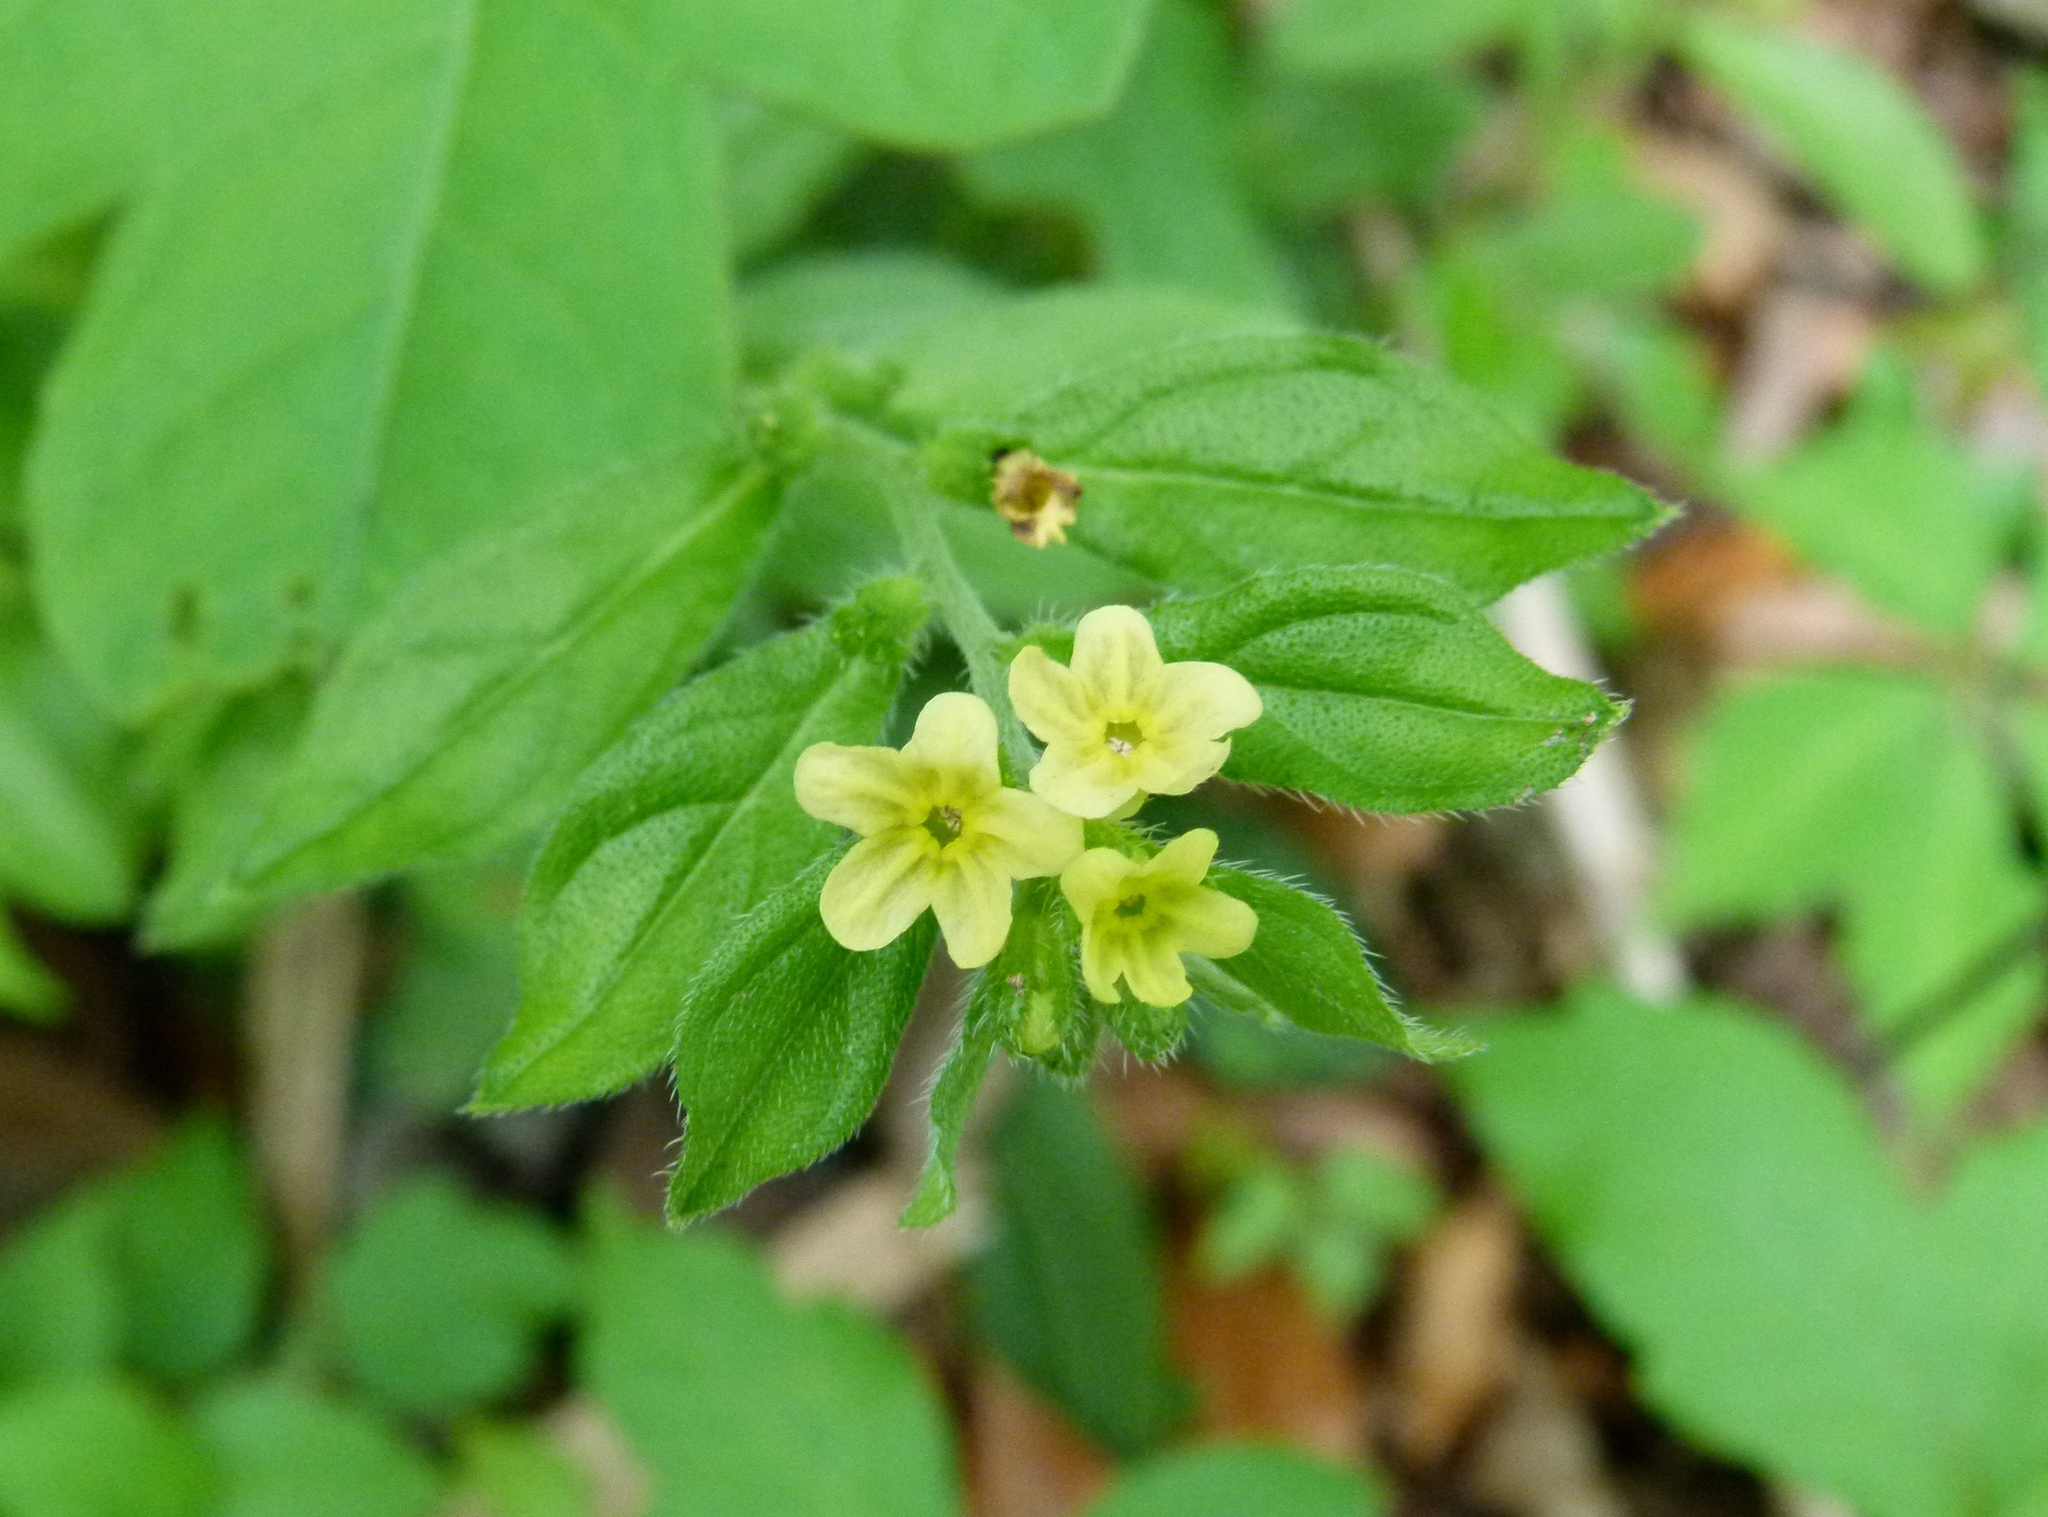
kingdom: Plantae
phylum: Tracheophyta
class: Magnoliopsida
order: Boraginales
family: Boraginaceae
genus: Lithospermum
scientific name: Lithospermum tuberosum
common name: Southern stoneseed
